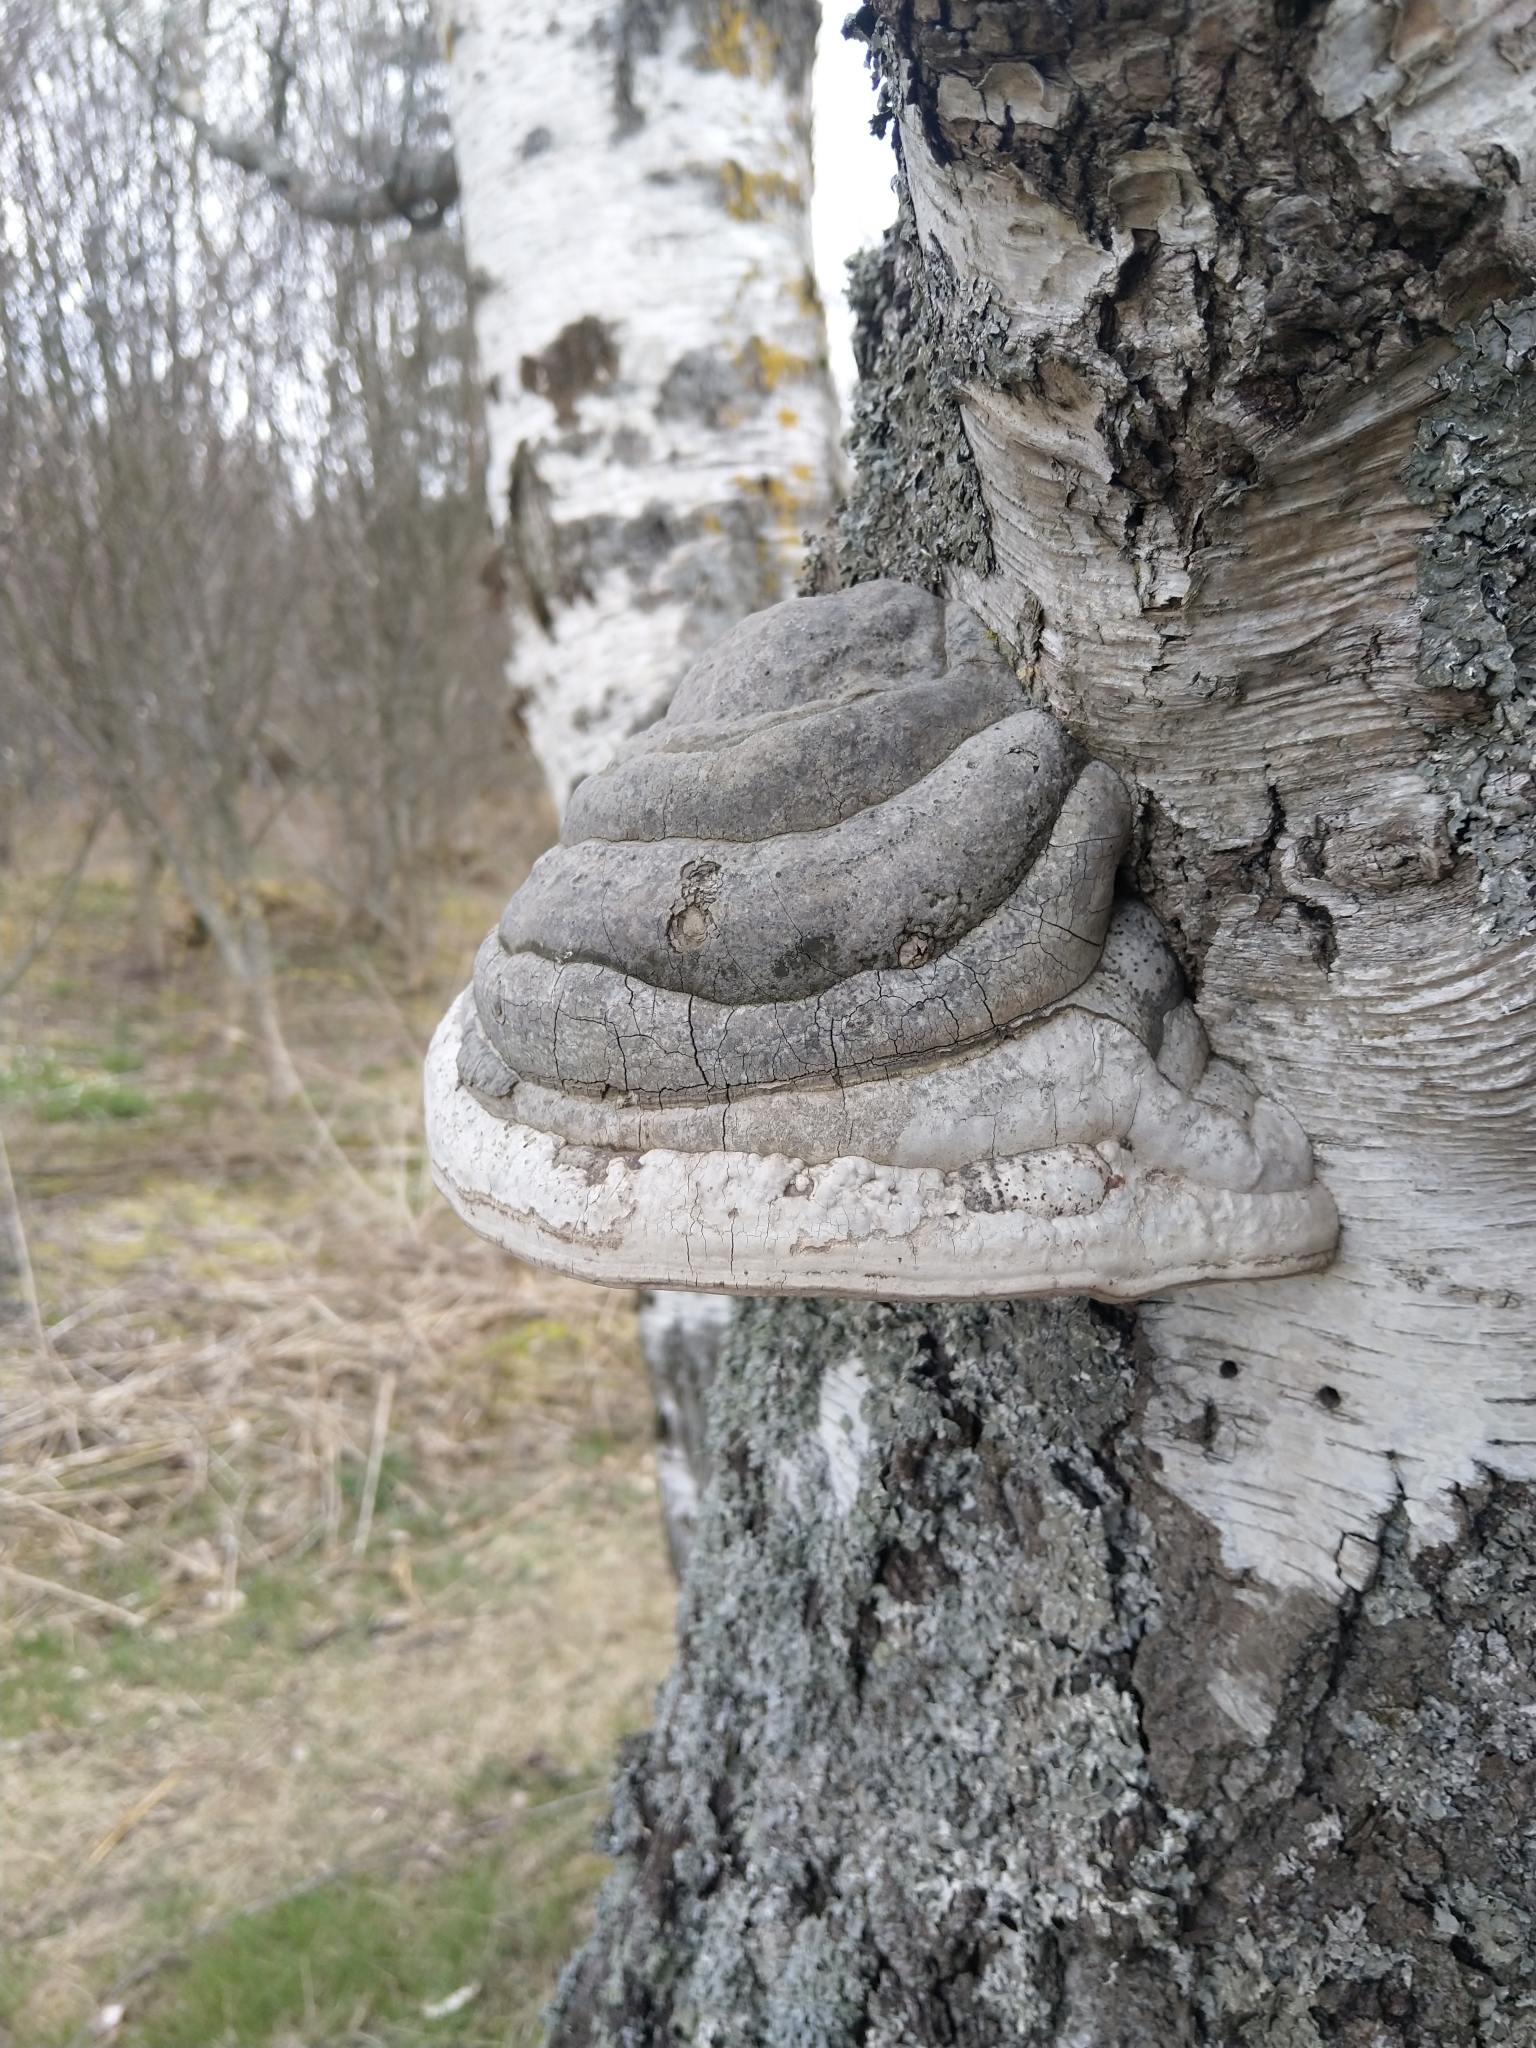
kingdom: Fungi
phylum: Basidiomycota
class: Agaricomycetes
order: Polyporales
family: Polyporaceae
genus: Fomes
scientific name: Fomes fomentarius
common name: Hoof fungus
